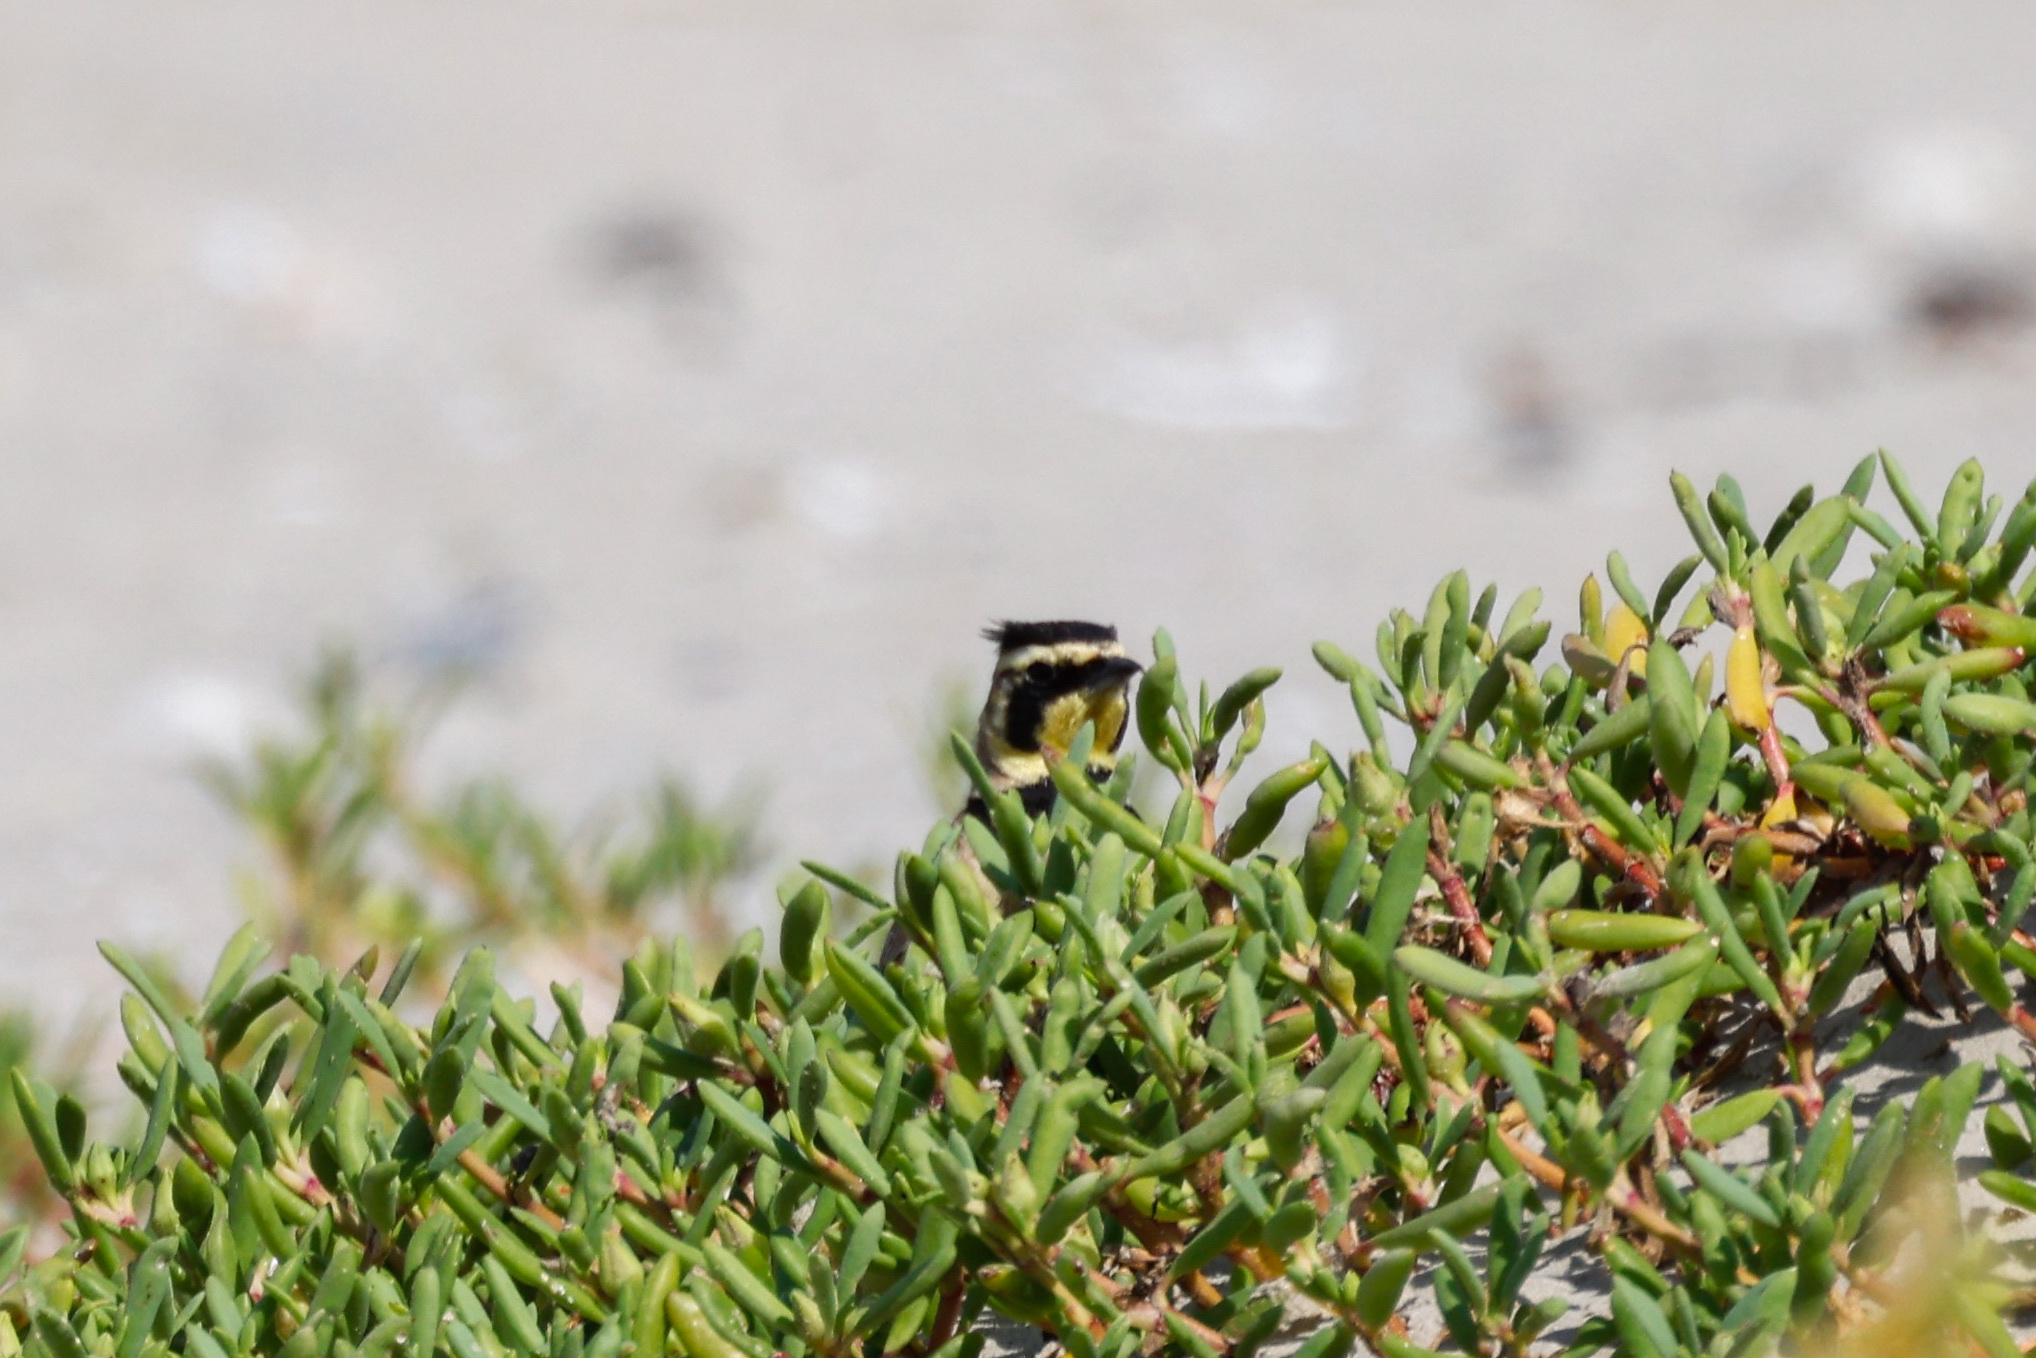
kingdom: Animalia
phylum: Chordata
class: Aves
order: Passeriformes
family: Alaudidae
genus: Eremophila
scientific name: Eremophila alpestris
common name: Horned lark
